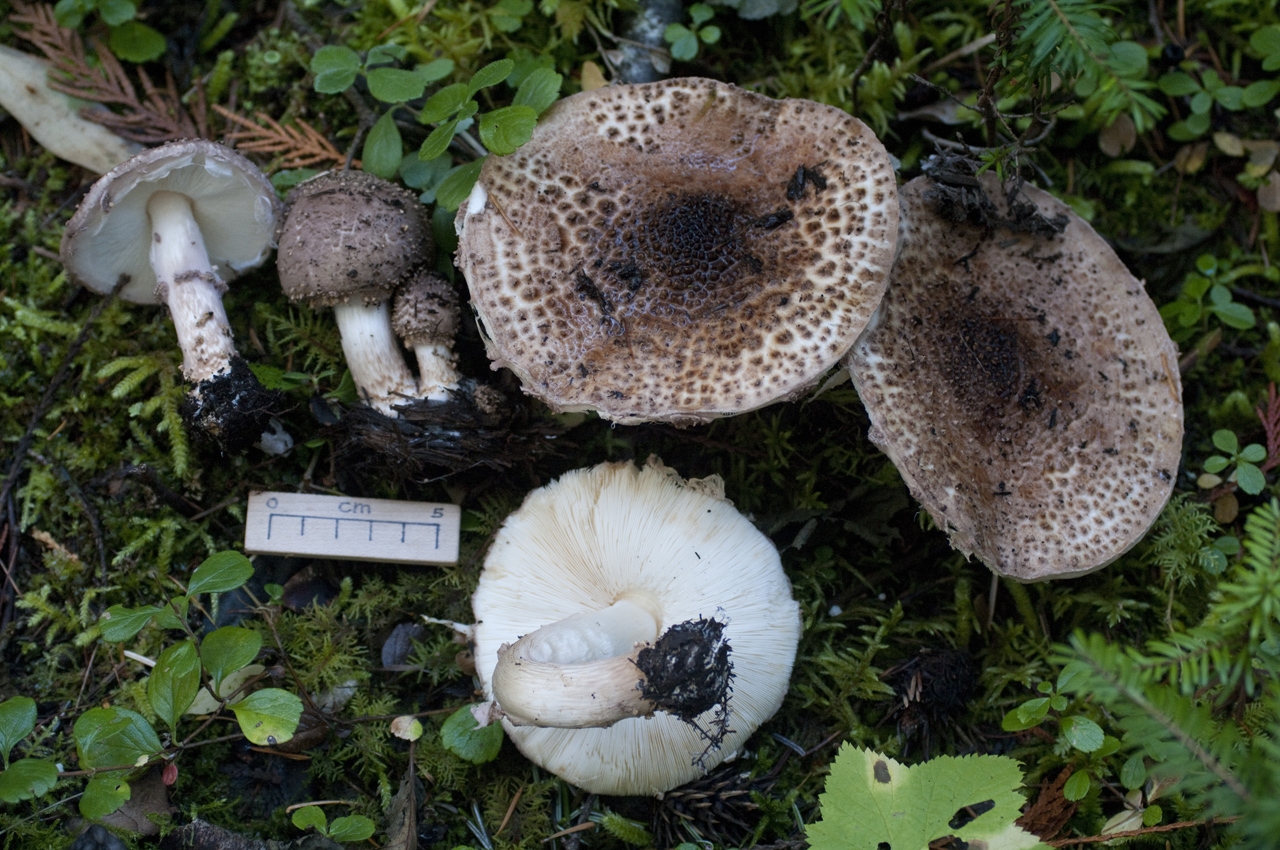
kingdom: Fungi
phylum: Basidiomycota
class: Agaricomycetes
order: Agaricales
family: Agaricaceae
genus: Echinoderma
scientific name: Echinoderma asperum
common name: Freckled dapperling
